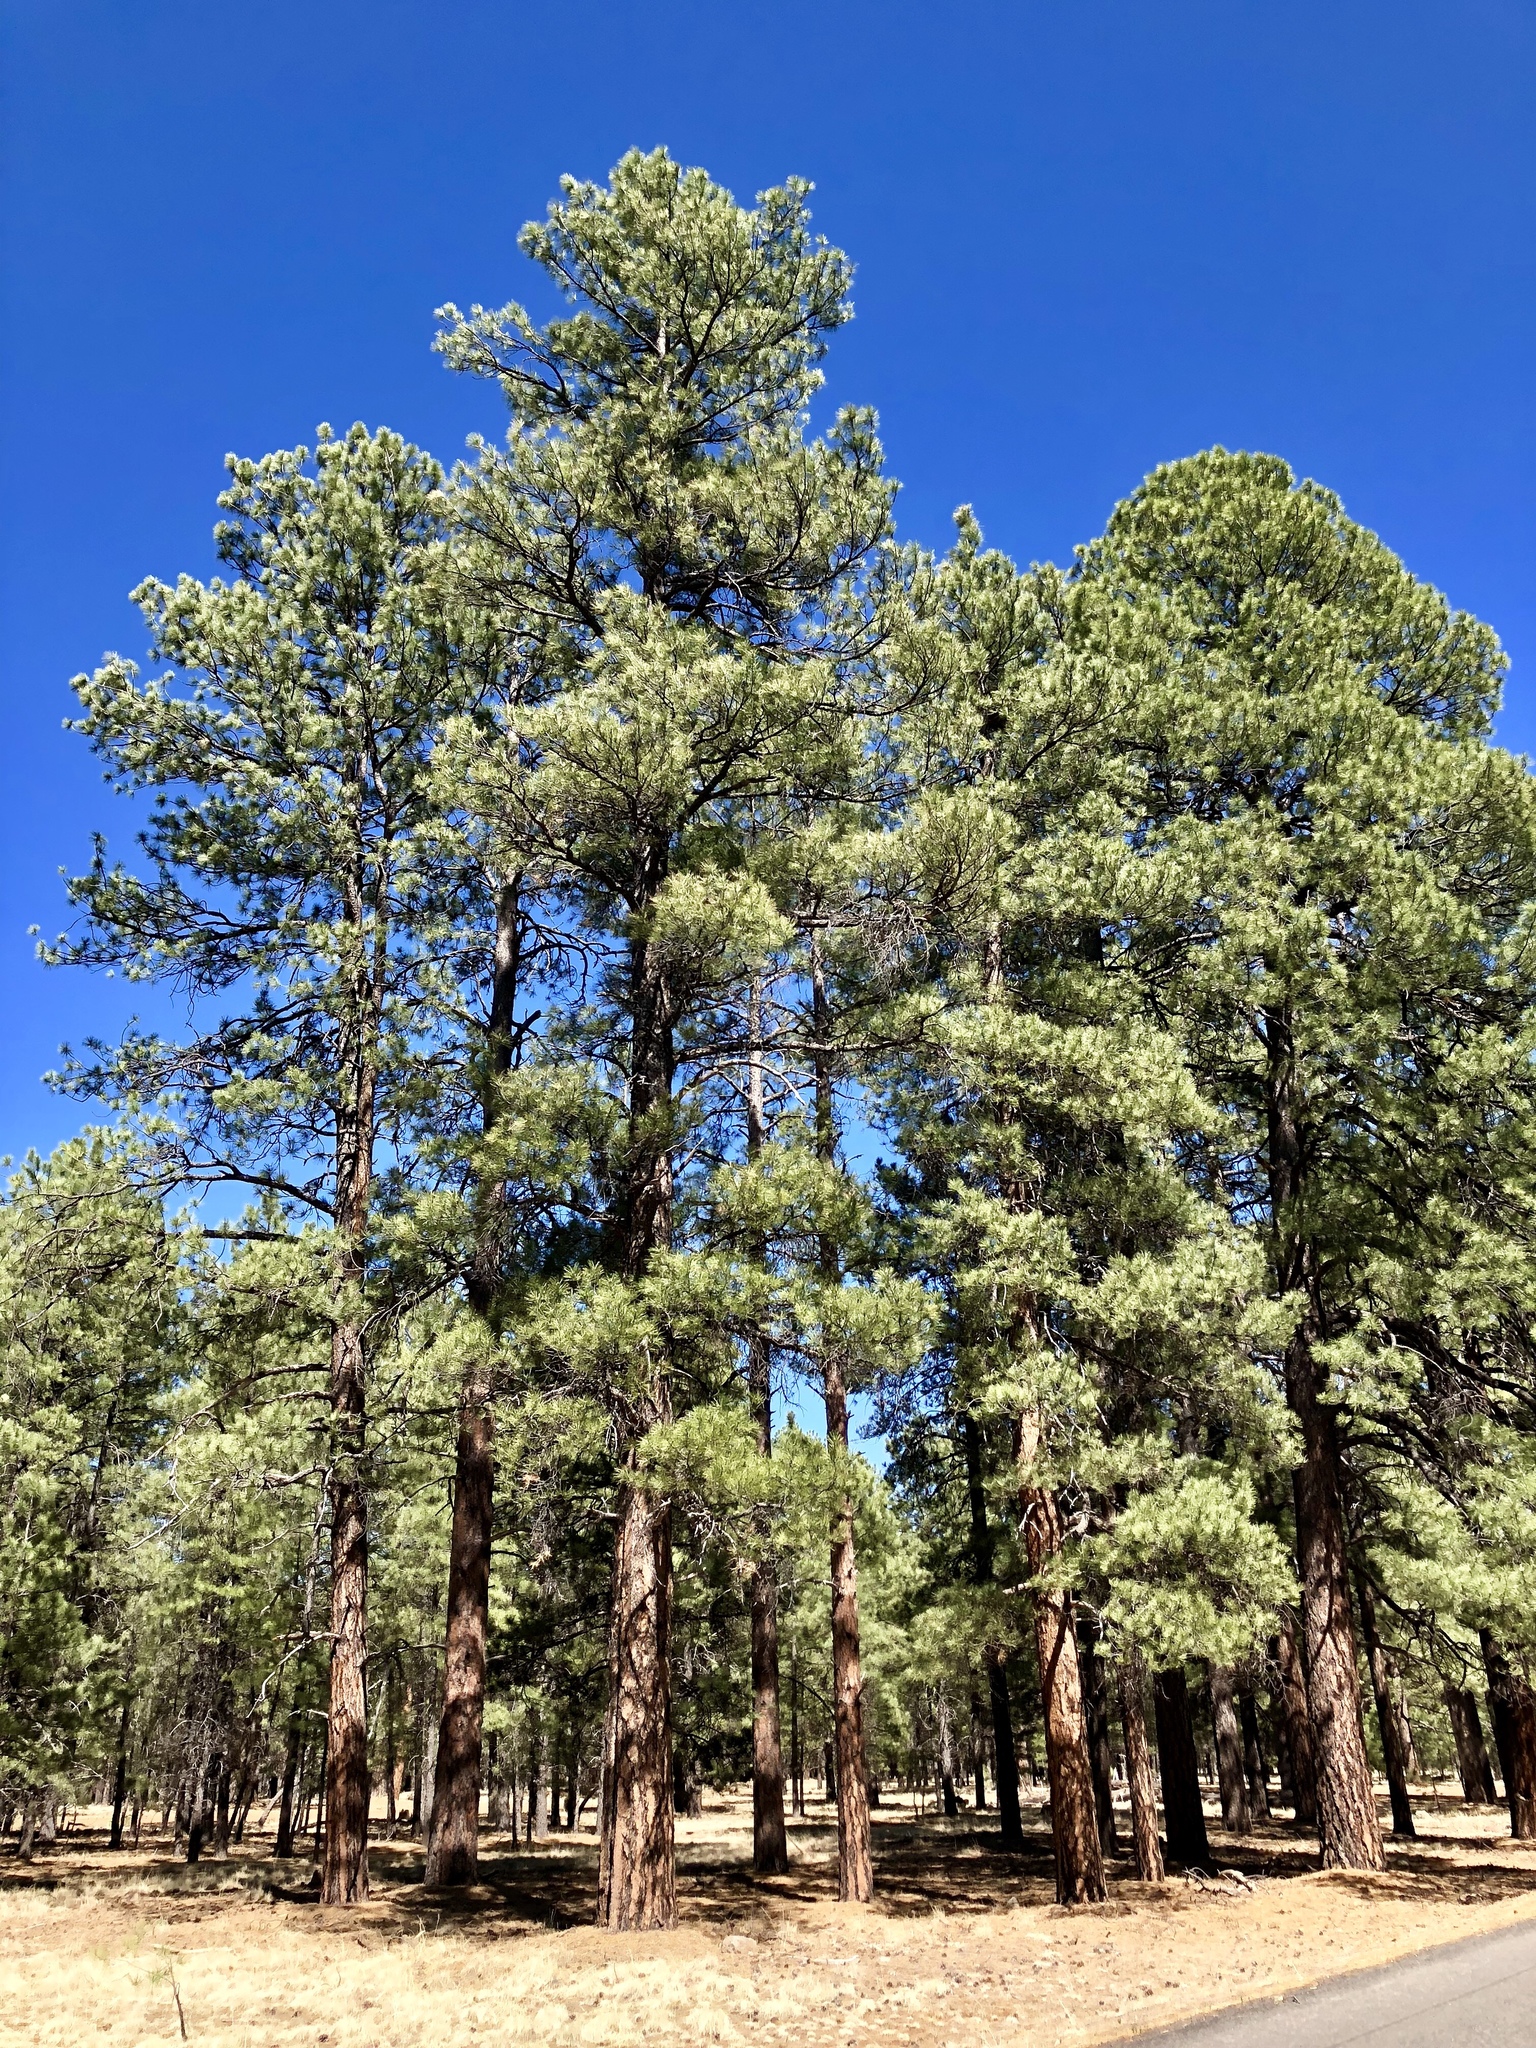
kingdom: Plantae
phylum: Tracheophyta
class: Pinopsida
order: Pinales
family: Pinaceae
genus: Pinus
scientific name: Pinus ponderosa
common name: Western yellow-pine
